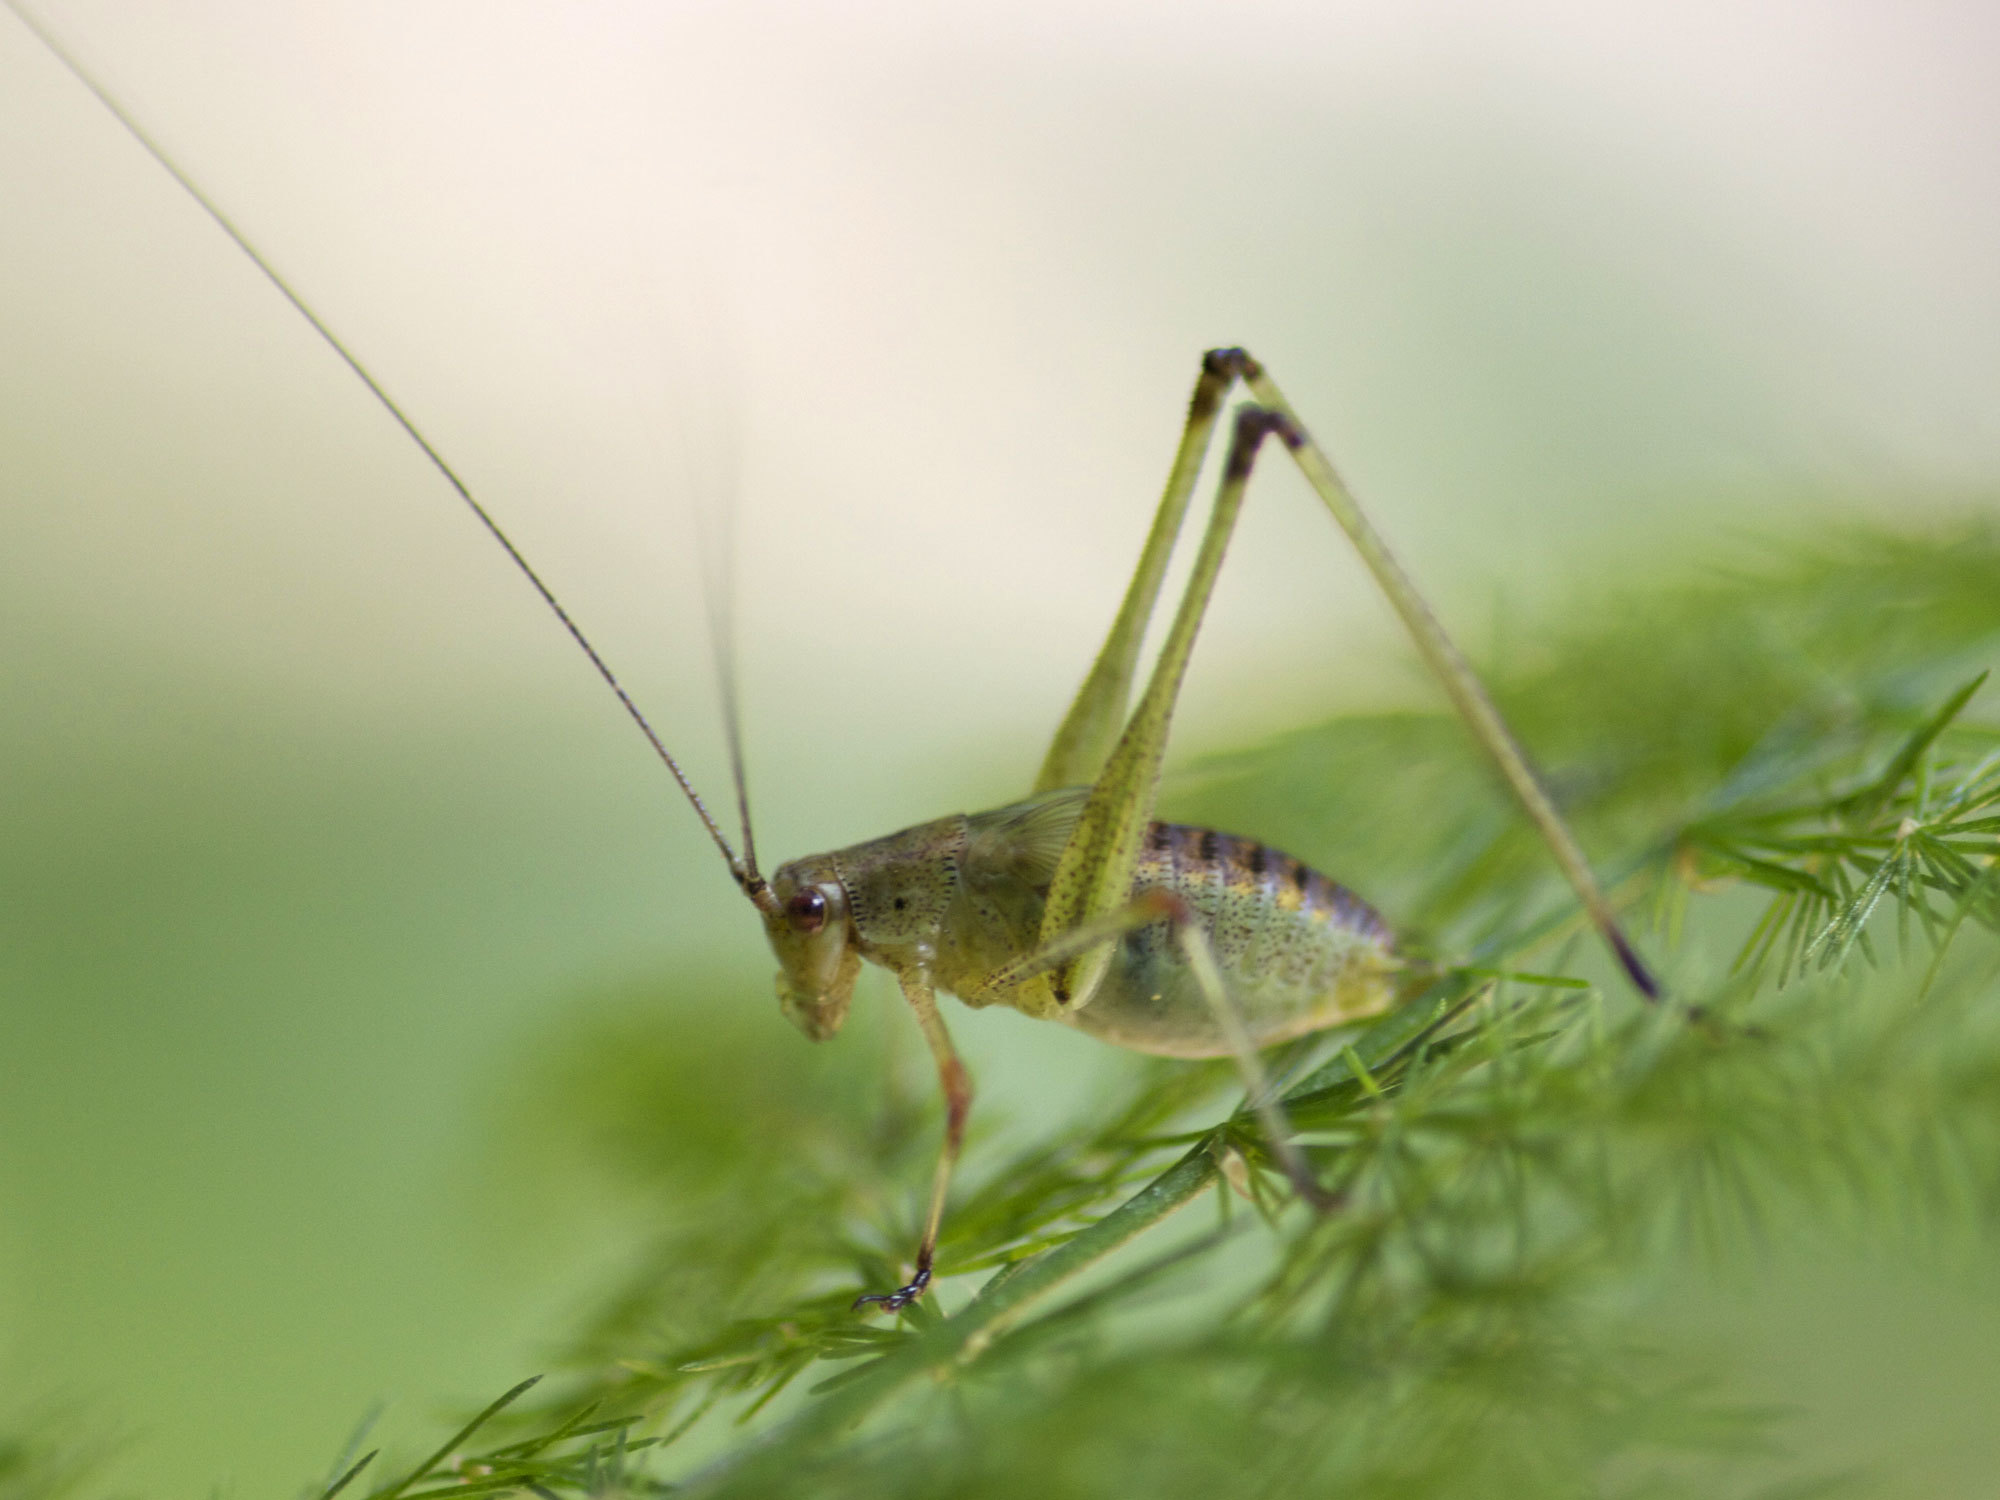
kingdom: Animalia
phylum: Arthropoda
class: Insecta
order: Orthoptera
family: Tettigoniidae
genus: Phaneroptera
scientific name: Phaneroptera nana
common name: Southern sickle bush-cricket
